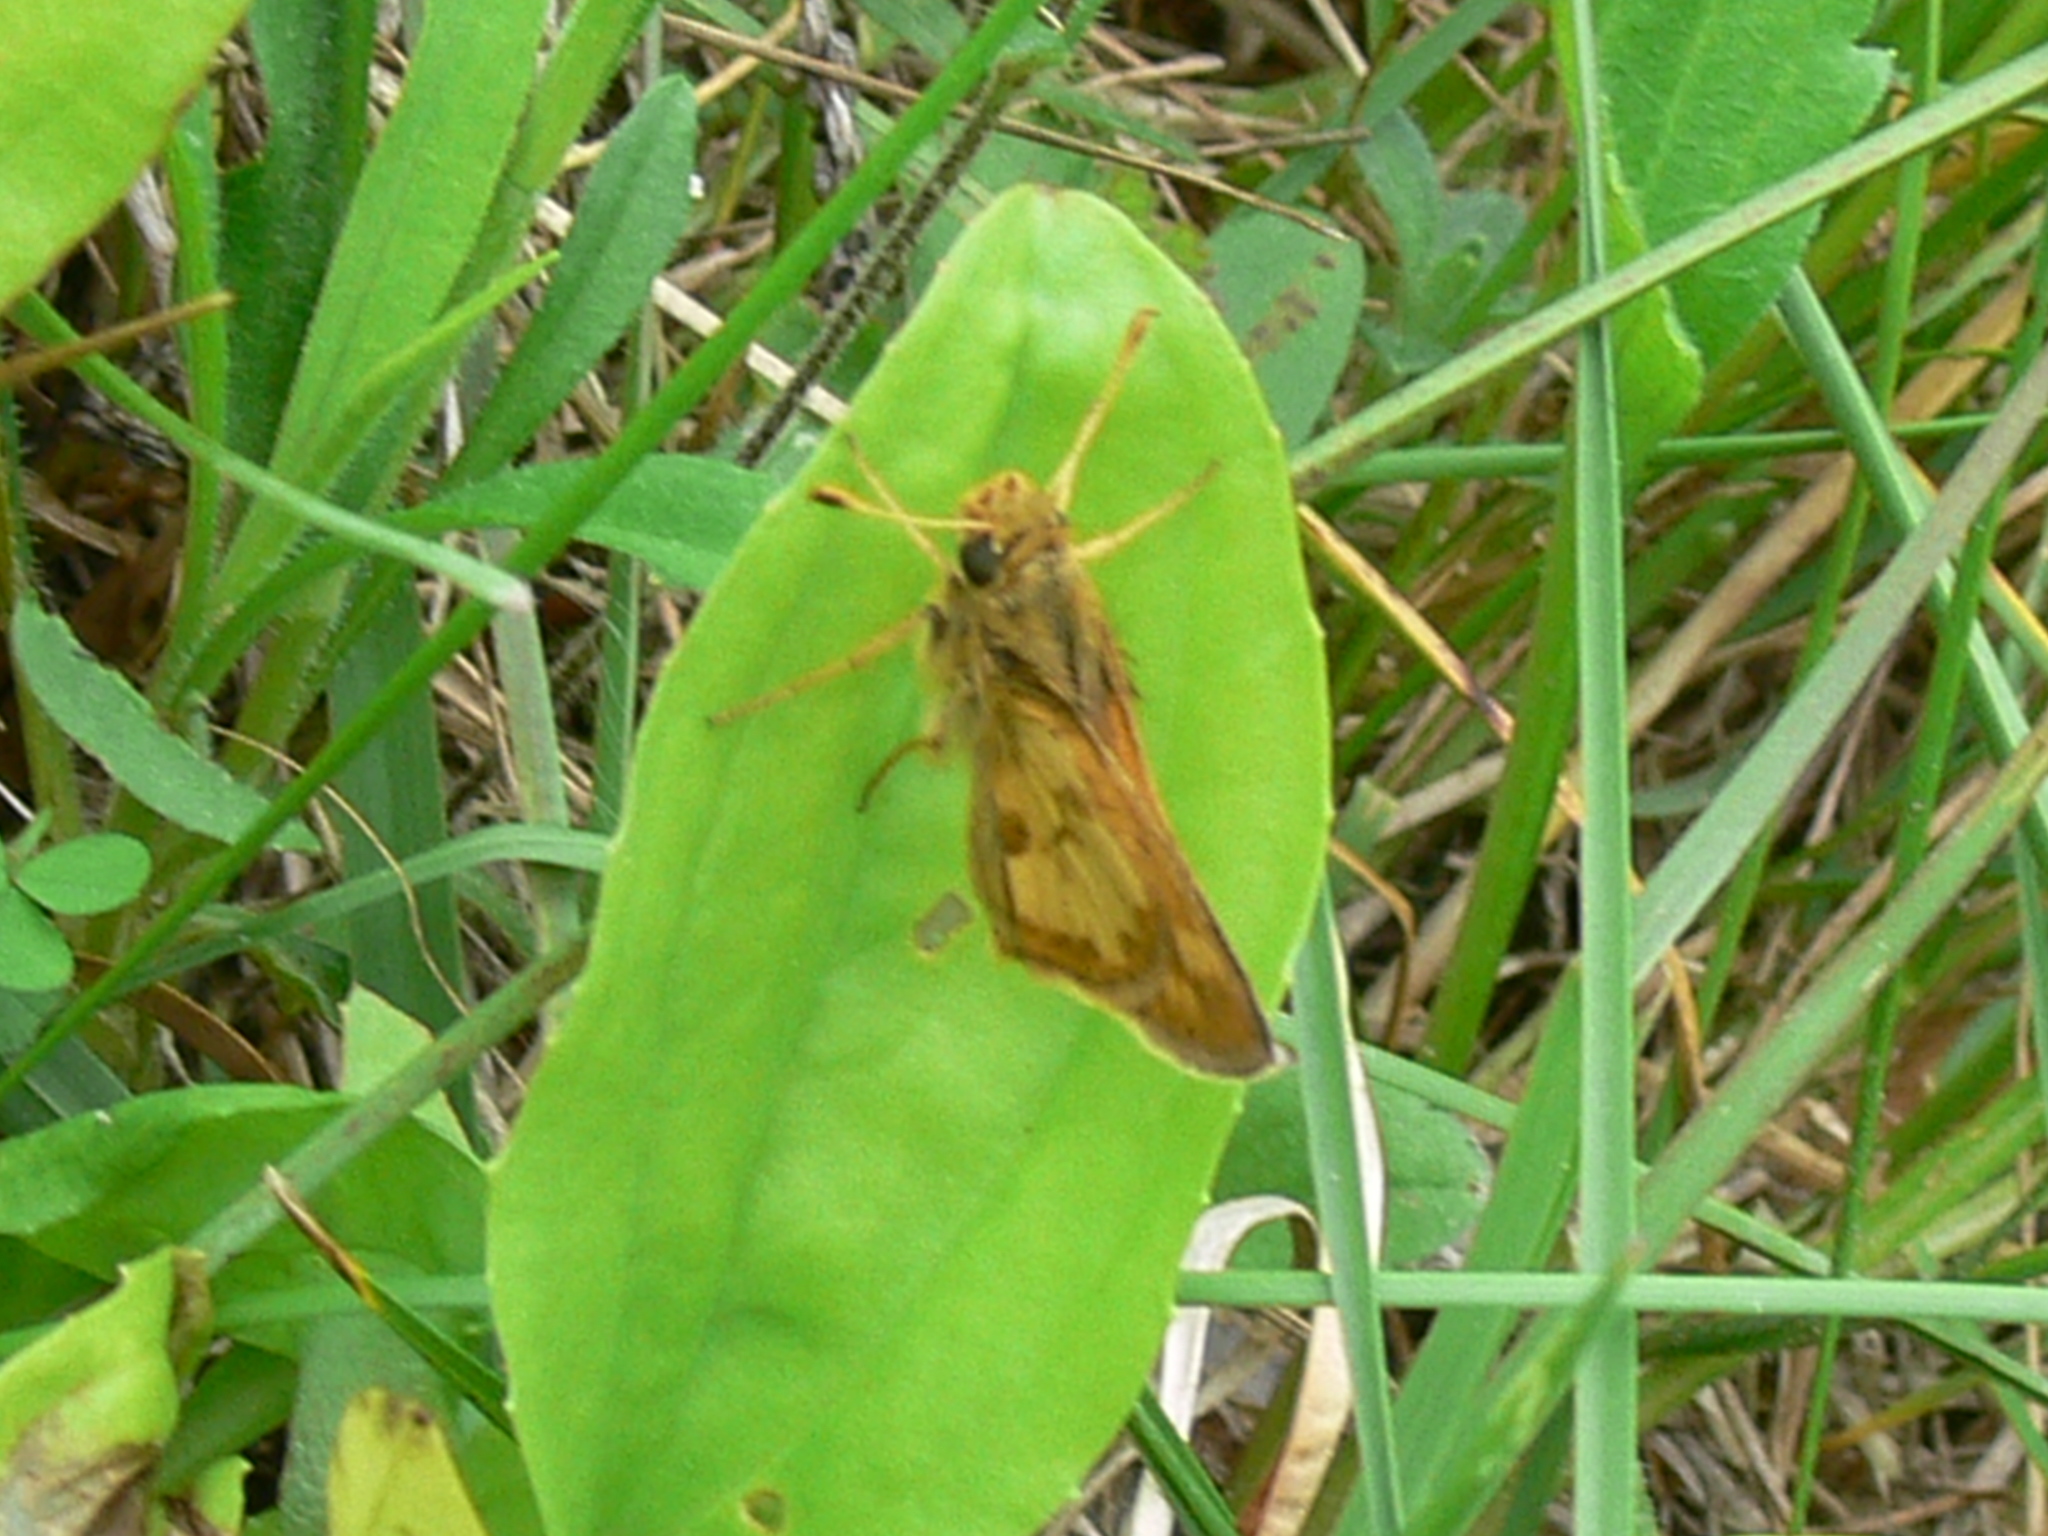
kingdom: Animalia
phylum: Arthropoda
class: Insecta
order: Lepidoptera
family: Hesperiidae
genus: Polites
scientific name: Polites coras
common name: Peck's skipper
